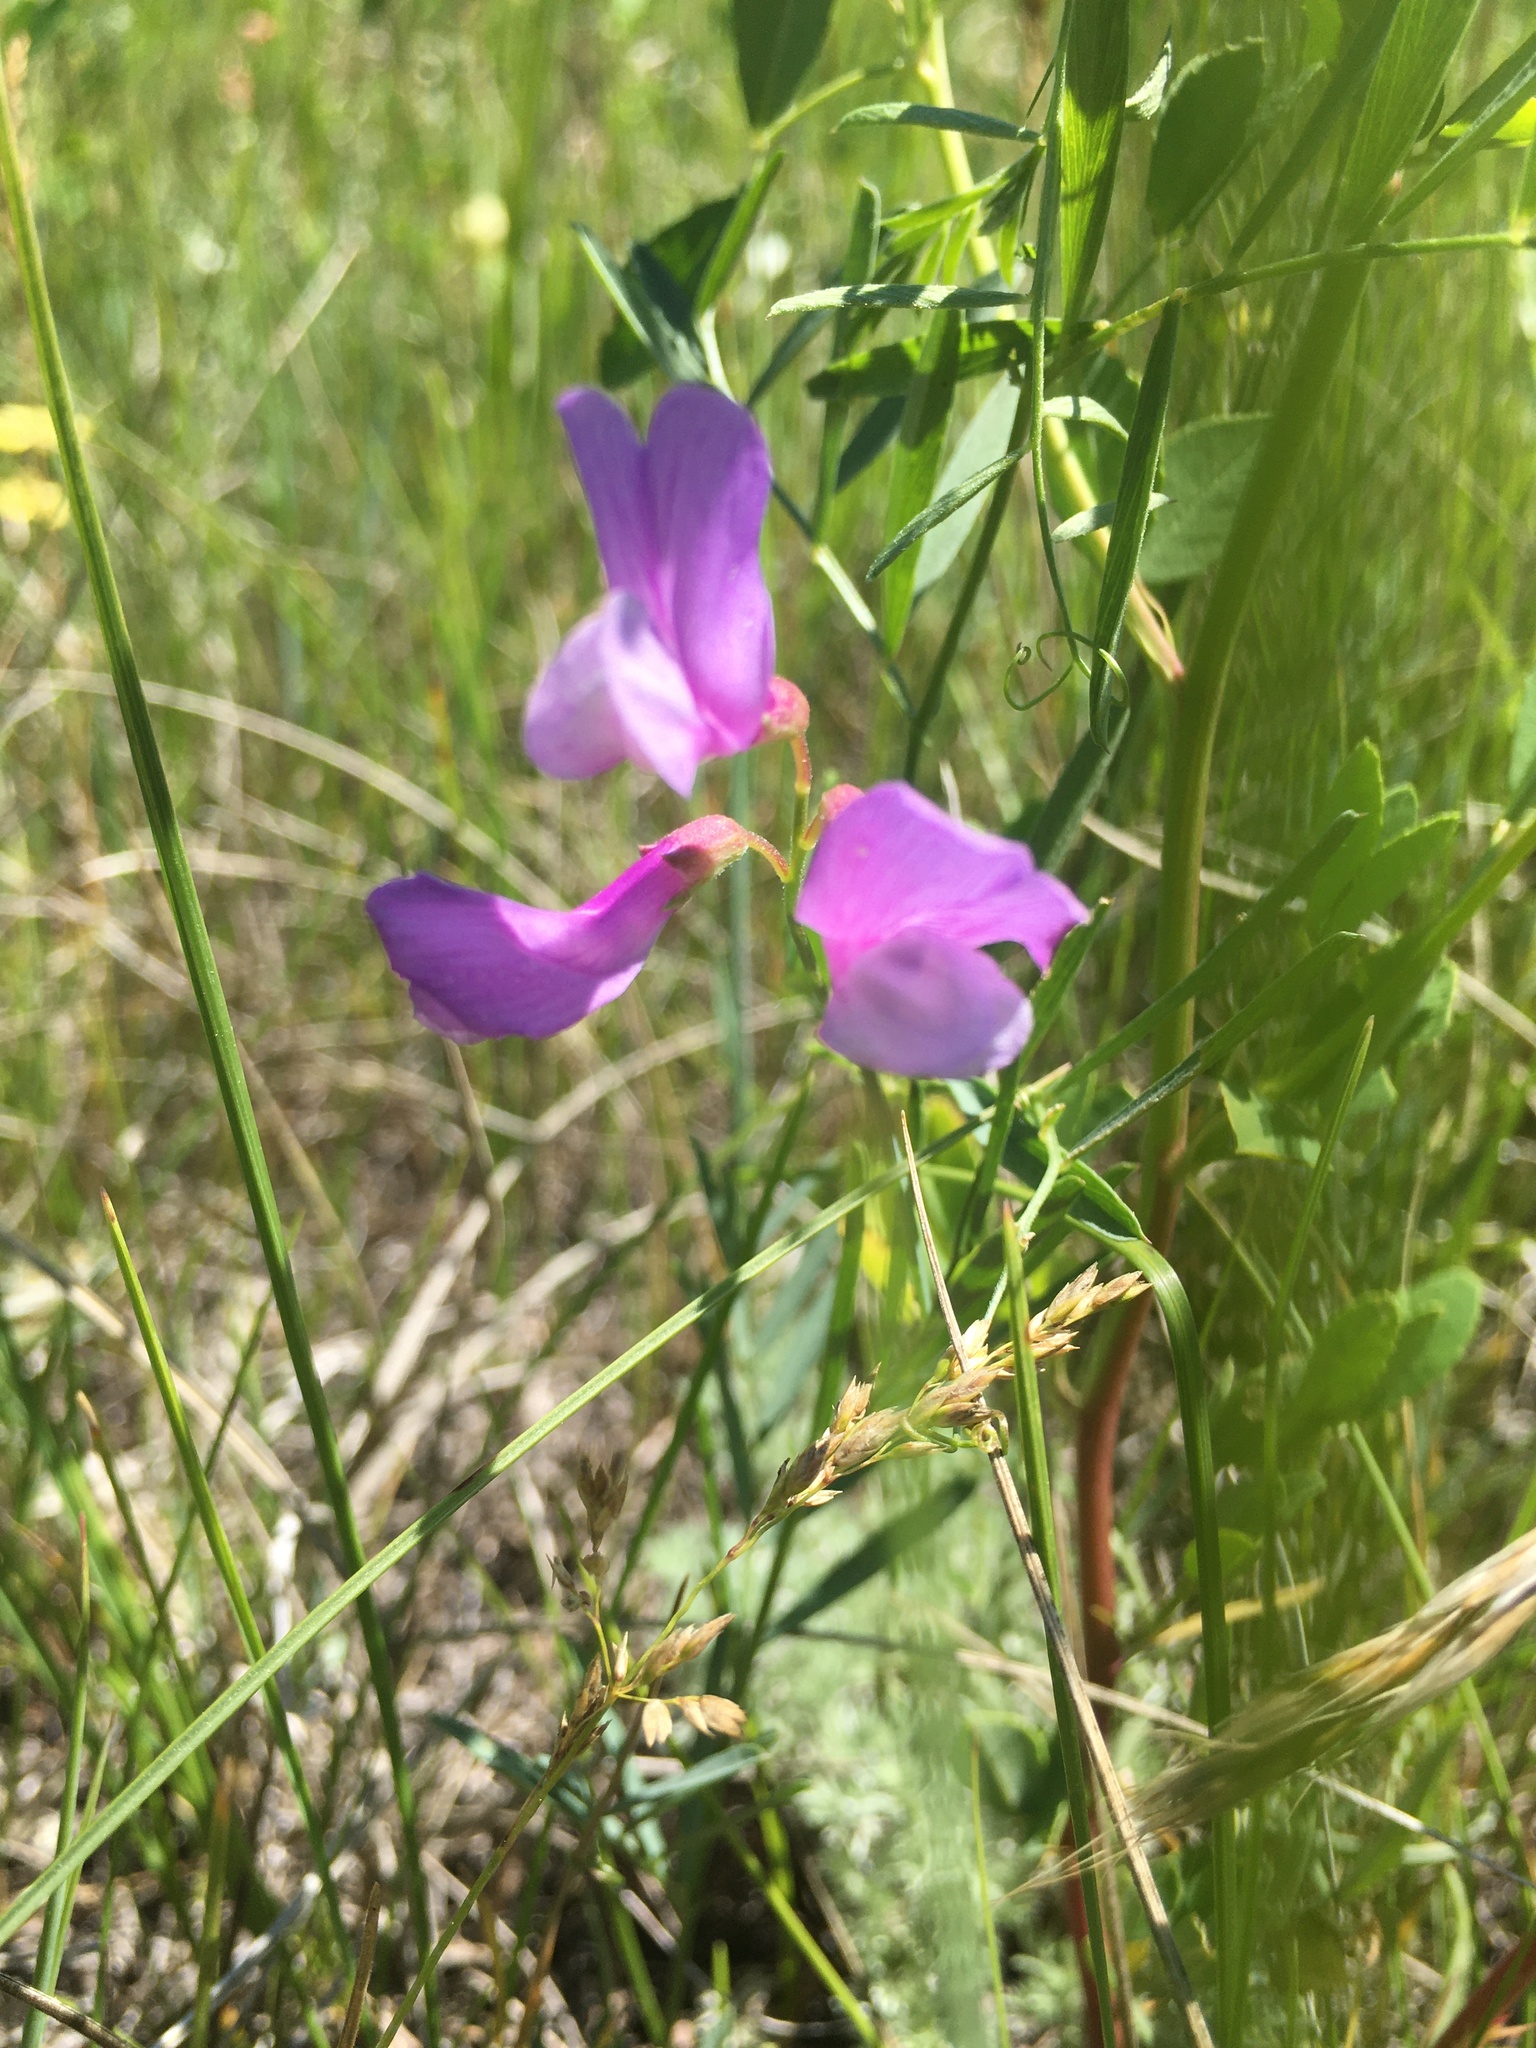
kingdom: Plantae
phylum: Tracheophyta
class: Magnoliopsida
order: Fabales
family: Fabaceae
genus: Vicia
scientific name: Vicia americana
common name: American vetch
